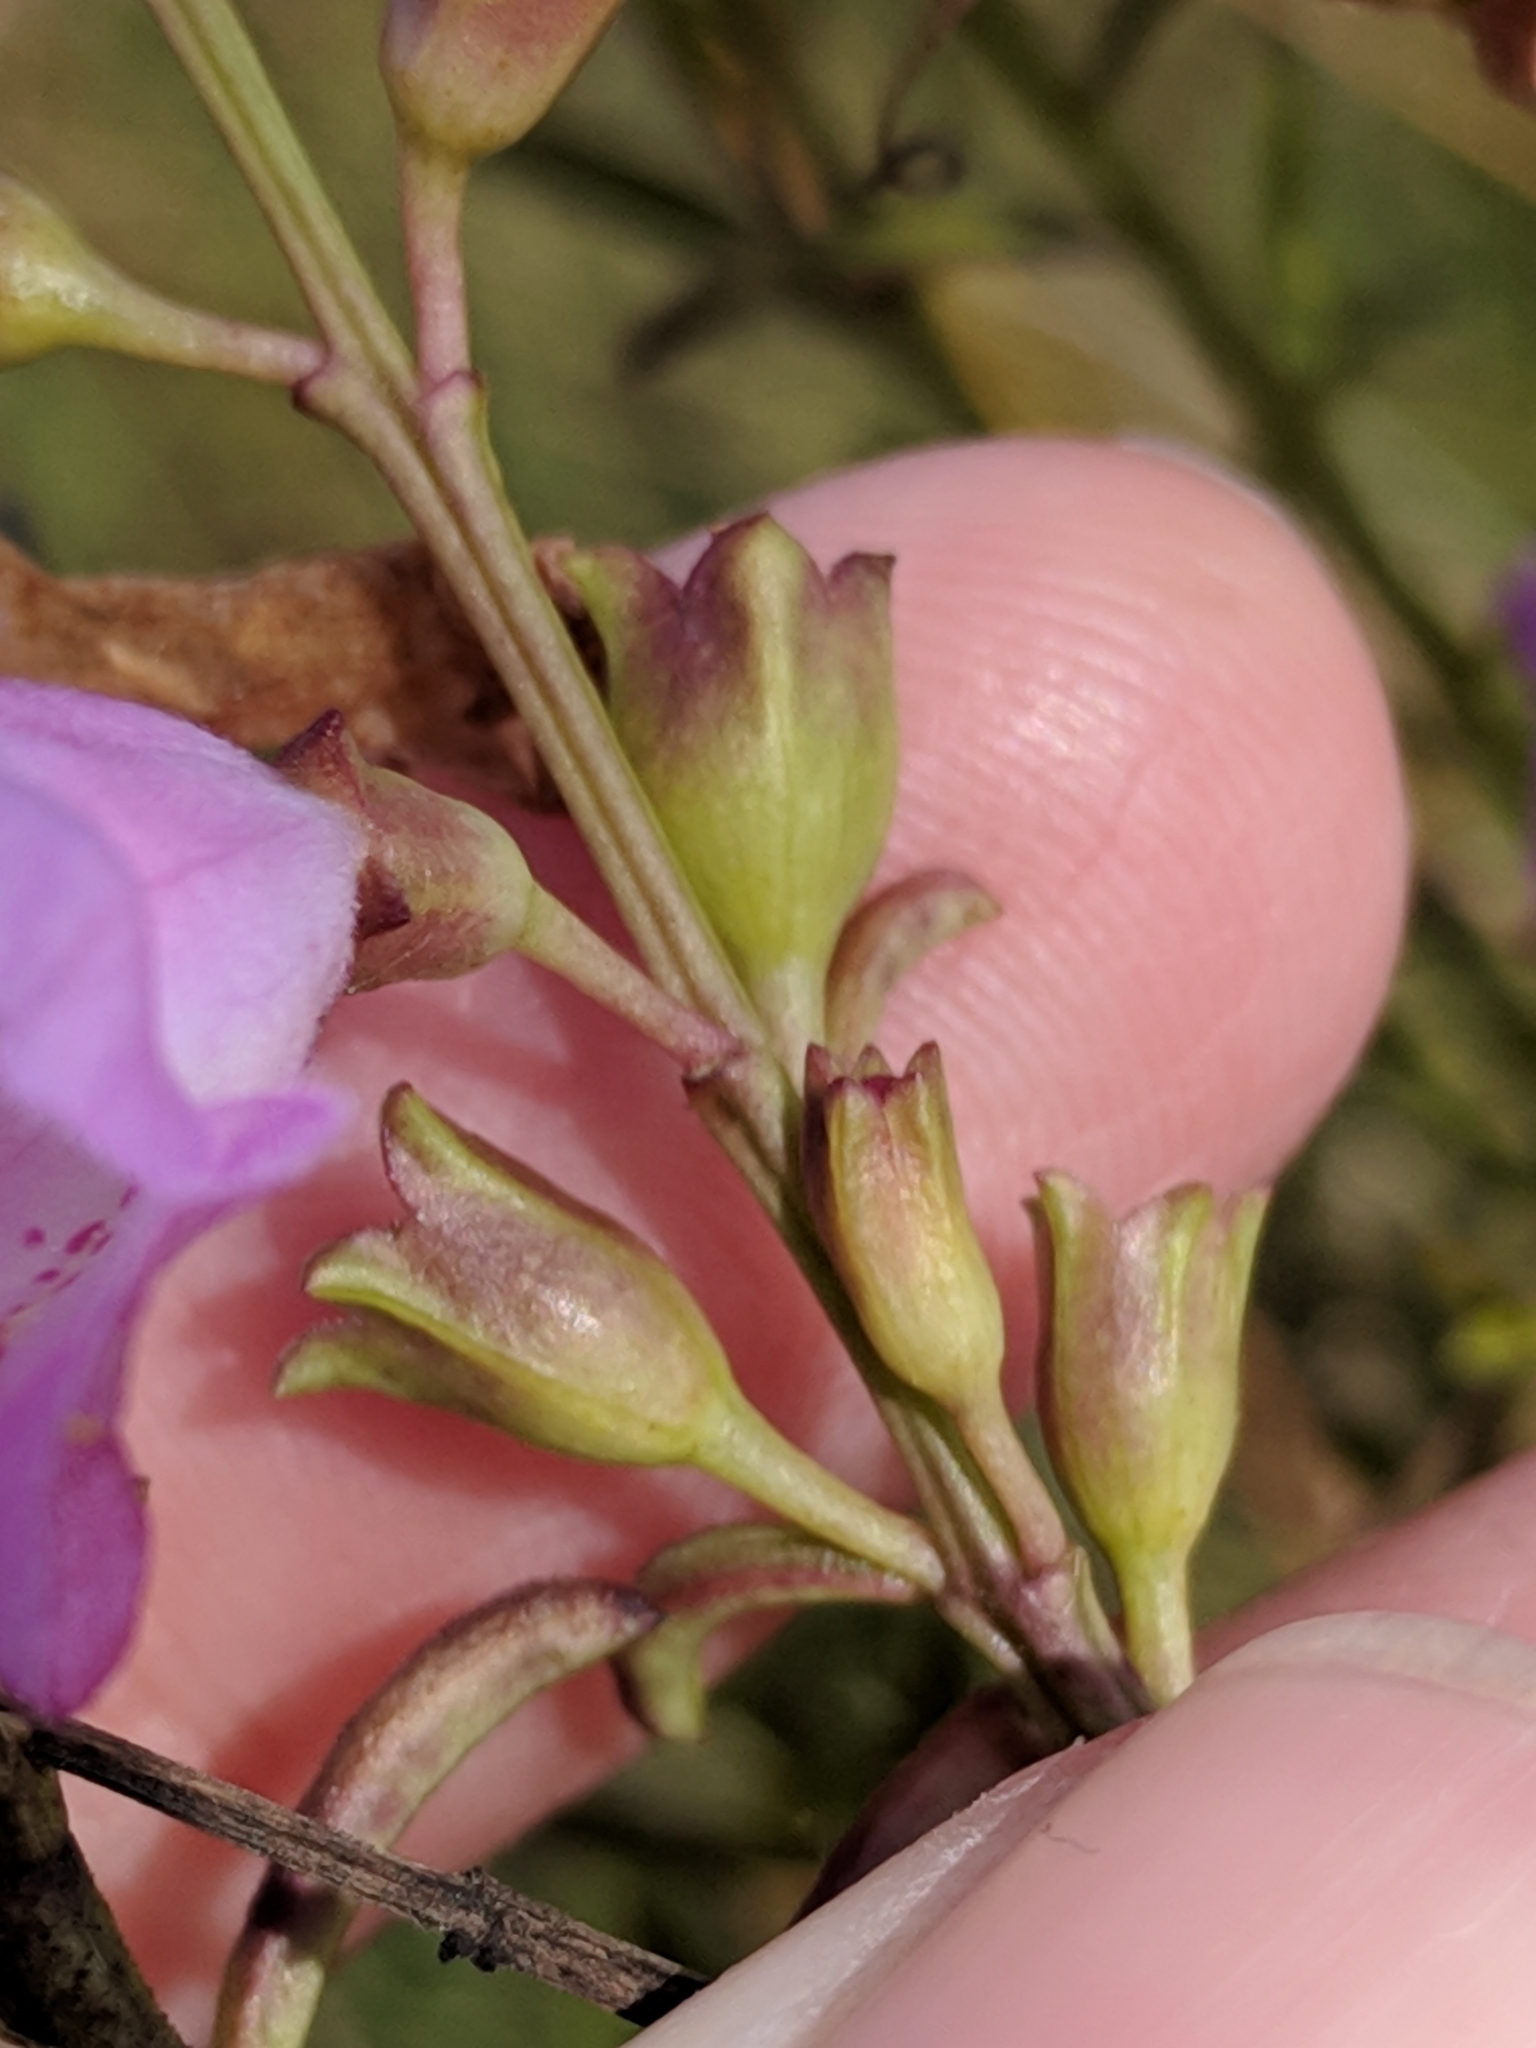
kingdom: Plantae
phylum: Tracheophyta
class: Magnoliopsida
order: Lamiales
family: Orobanchaceae
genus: Agalinis
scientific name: Agalinis fasciculata
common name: Beach false foxglove
